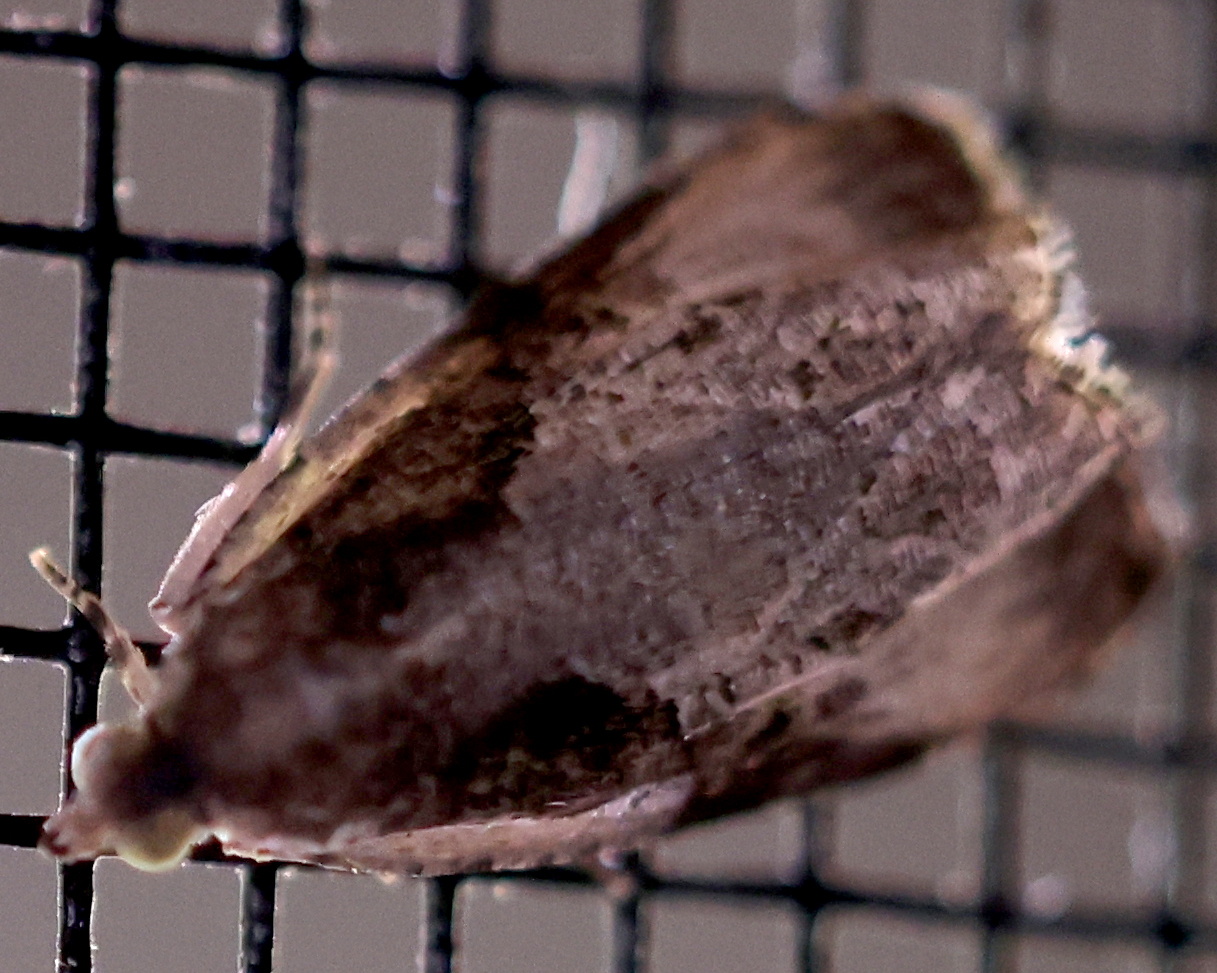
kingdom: Animalia
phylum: Arthropoda
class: Insecta
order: Lepidoptera
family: Tortricidae
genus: Olethreutes
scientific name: Olethreutes connectum
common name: Bunchberry leaffolder moth
